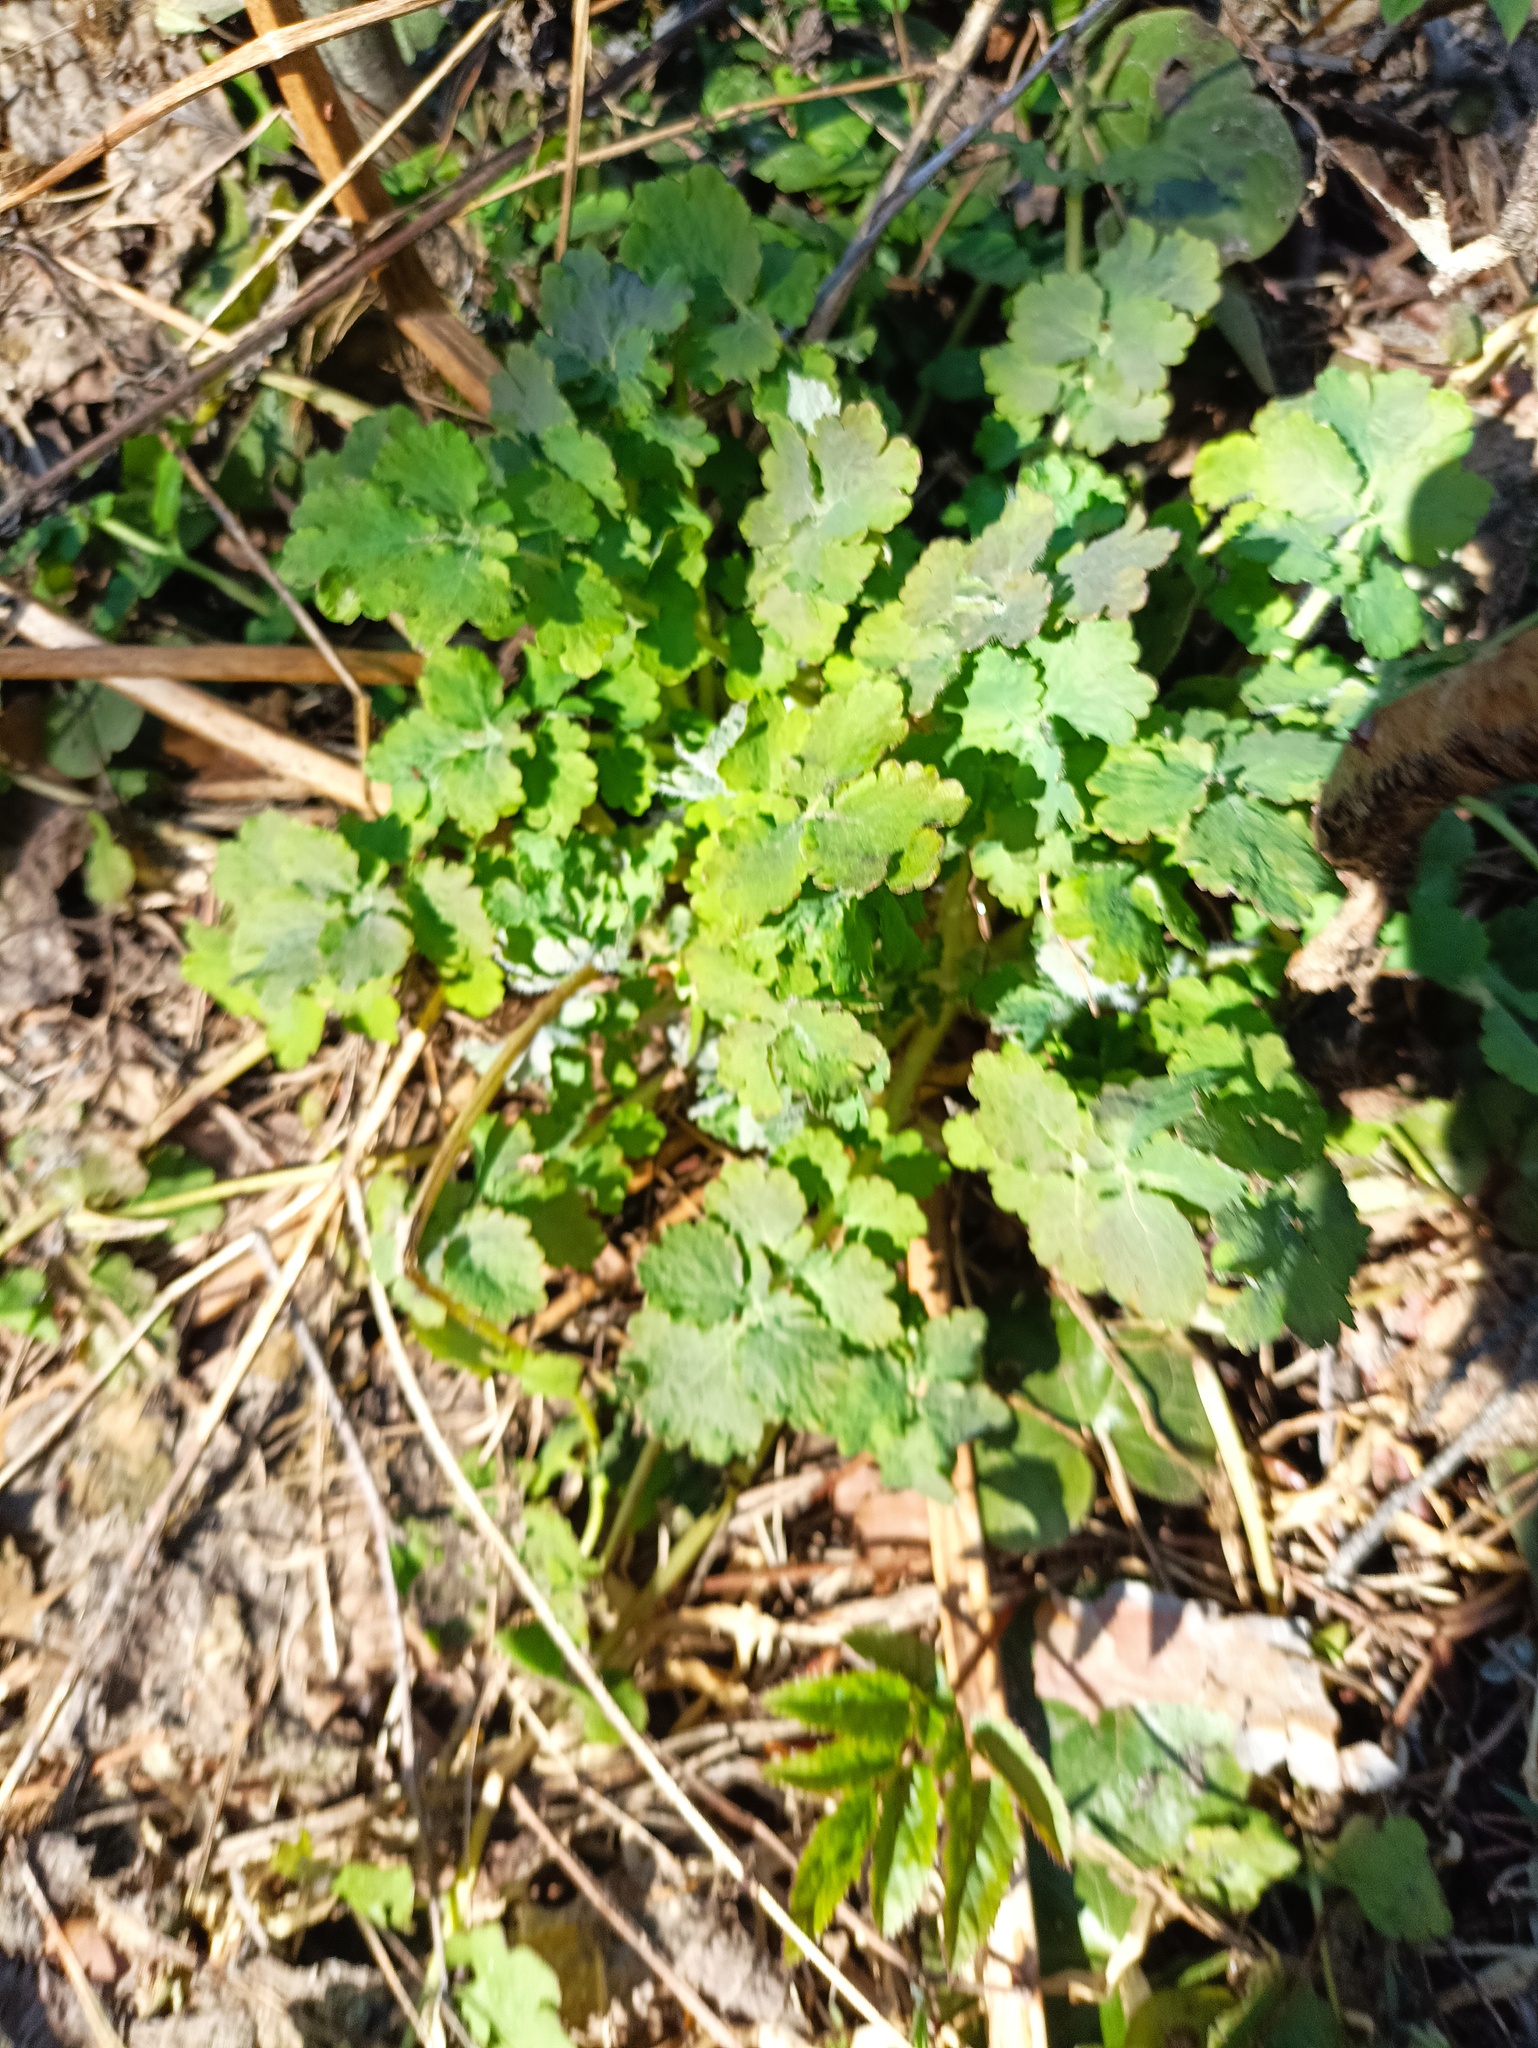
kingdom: Plantae
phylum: Tracheophyta
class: Magnoliopsida
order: Ranunculales
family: Papaveraceae
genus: Chelidonium
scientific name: Chelidonium majus
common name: Greater celandine
